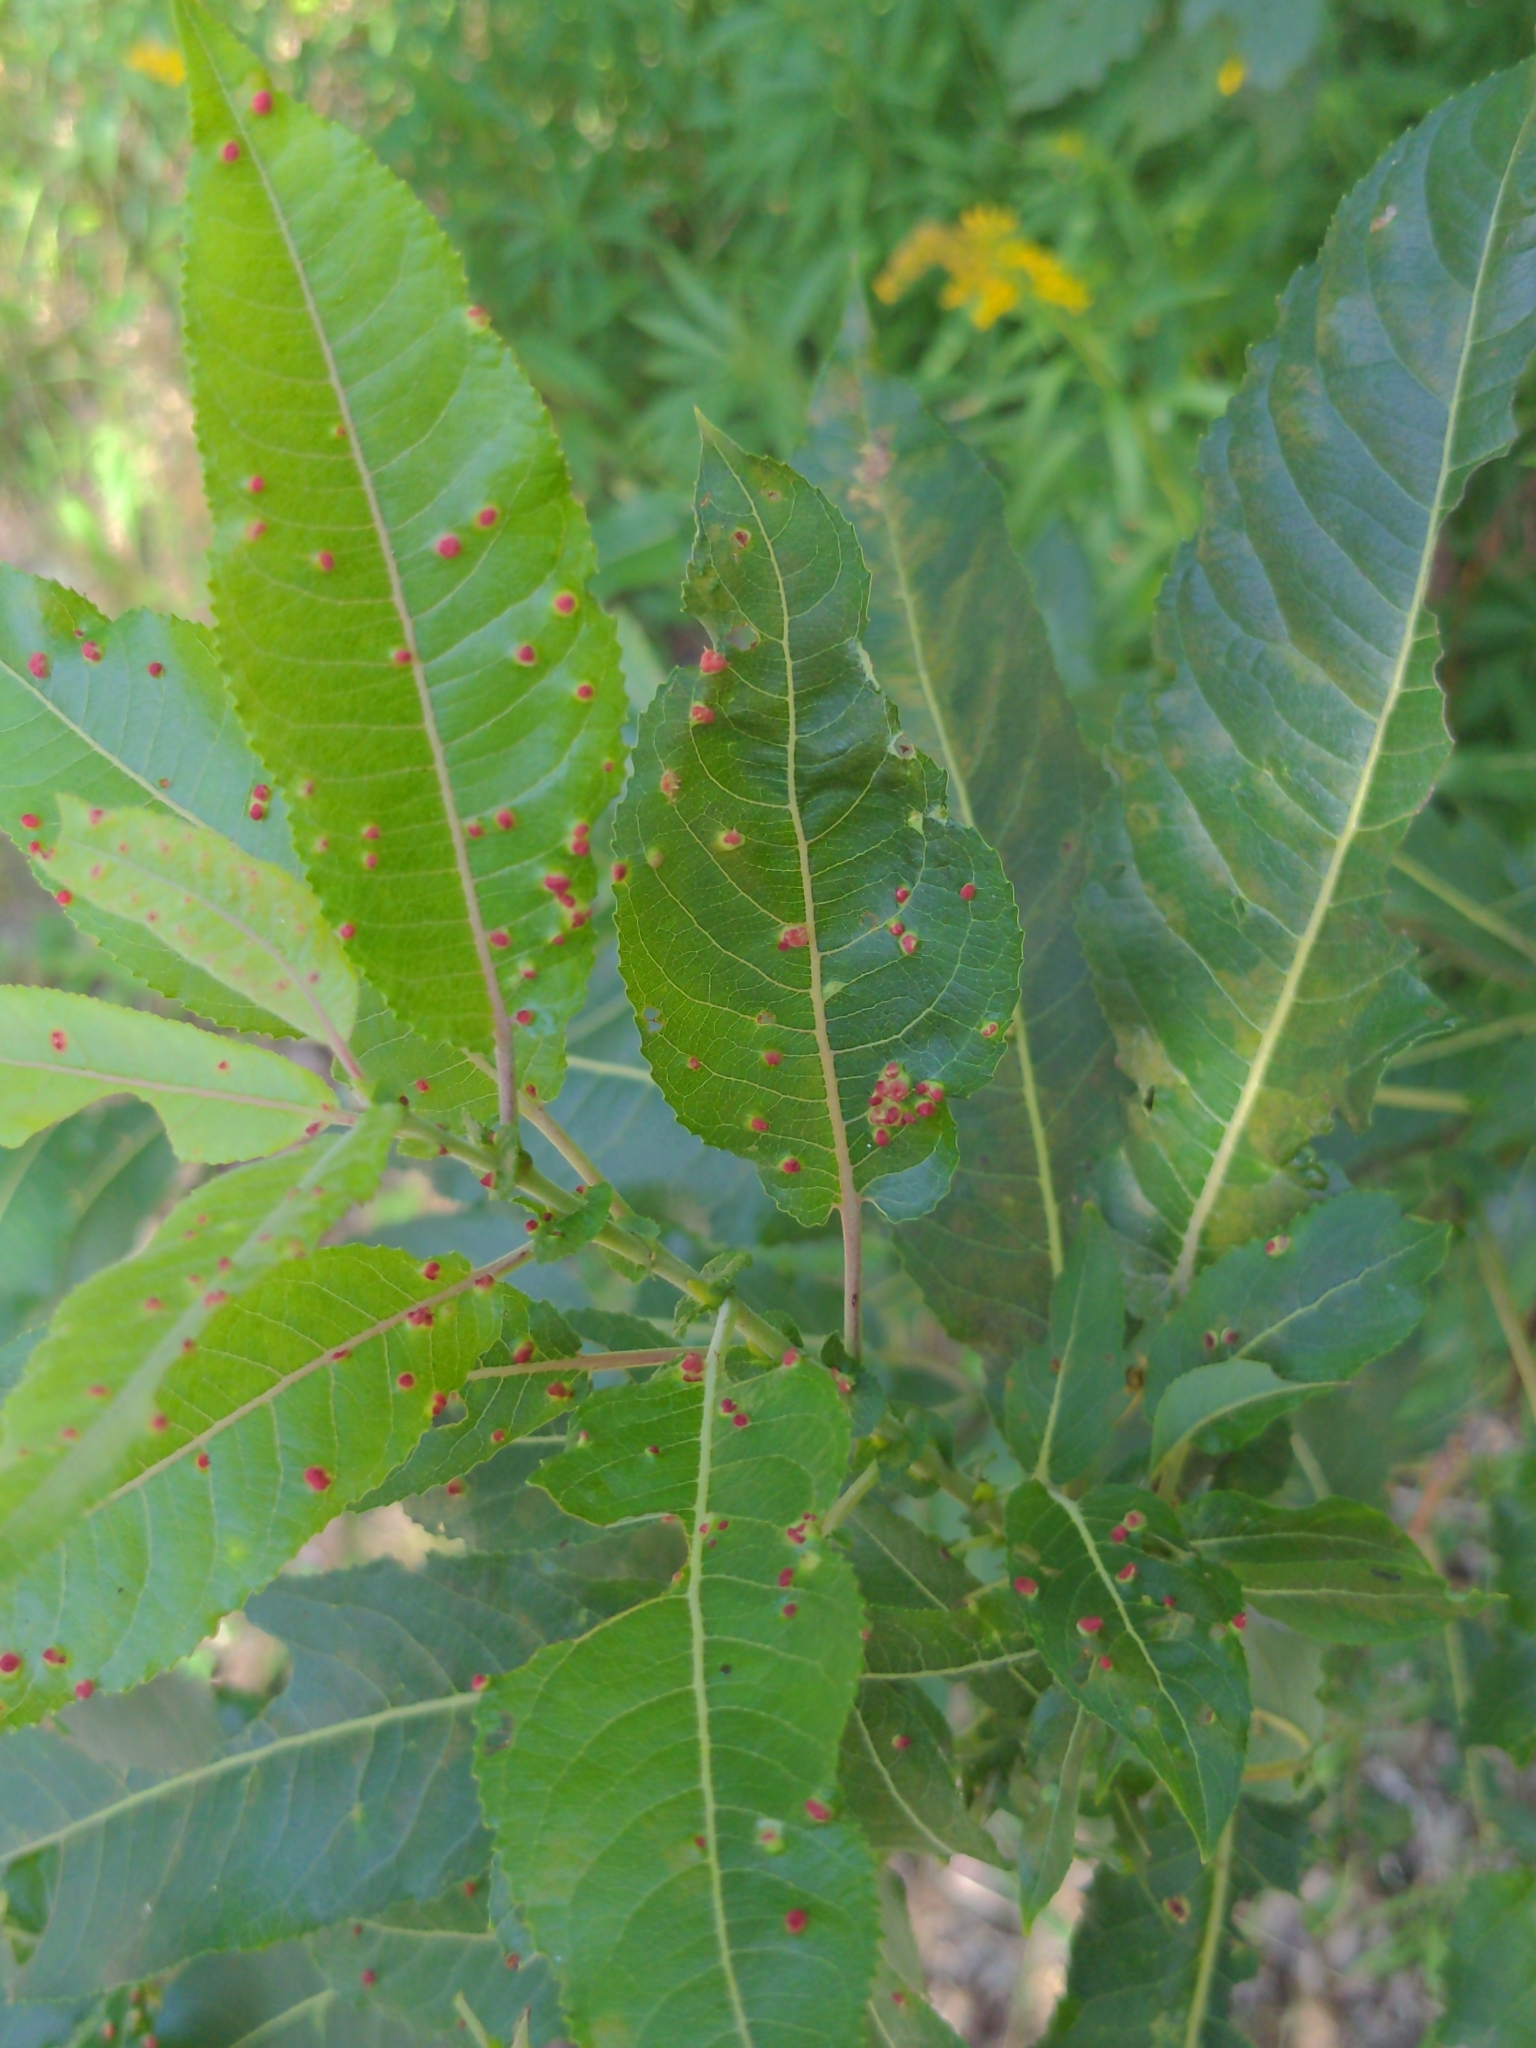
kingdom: Animalia
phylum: Arthropoda
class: Arachnida
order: Trombidiformes
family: Eriophyidae
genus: Aculus
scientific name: Aculus tetanothrix
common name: Willow bead gall mite
